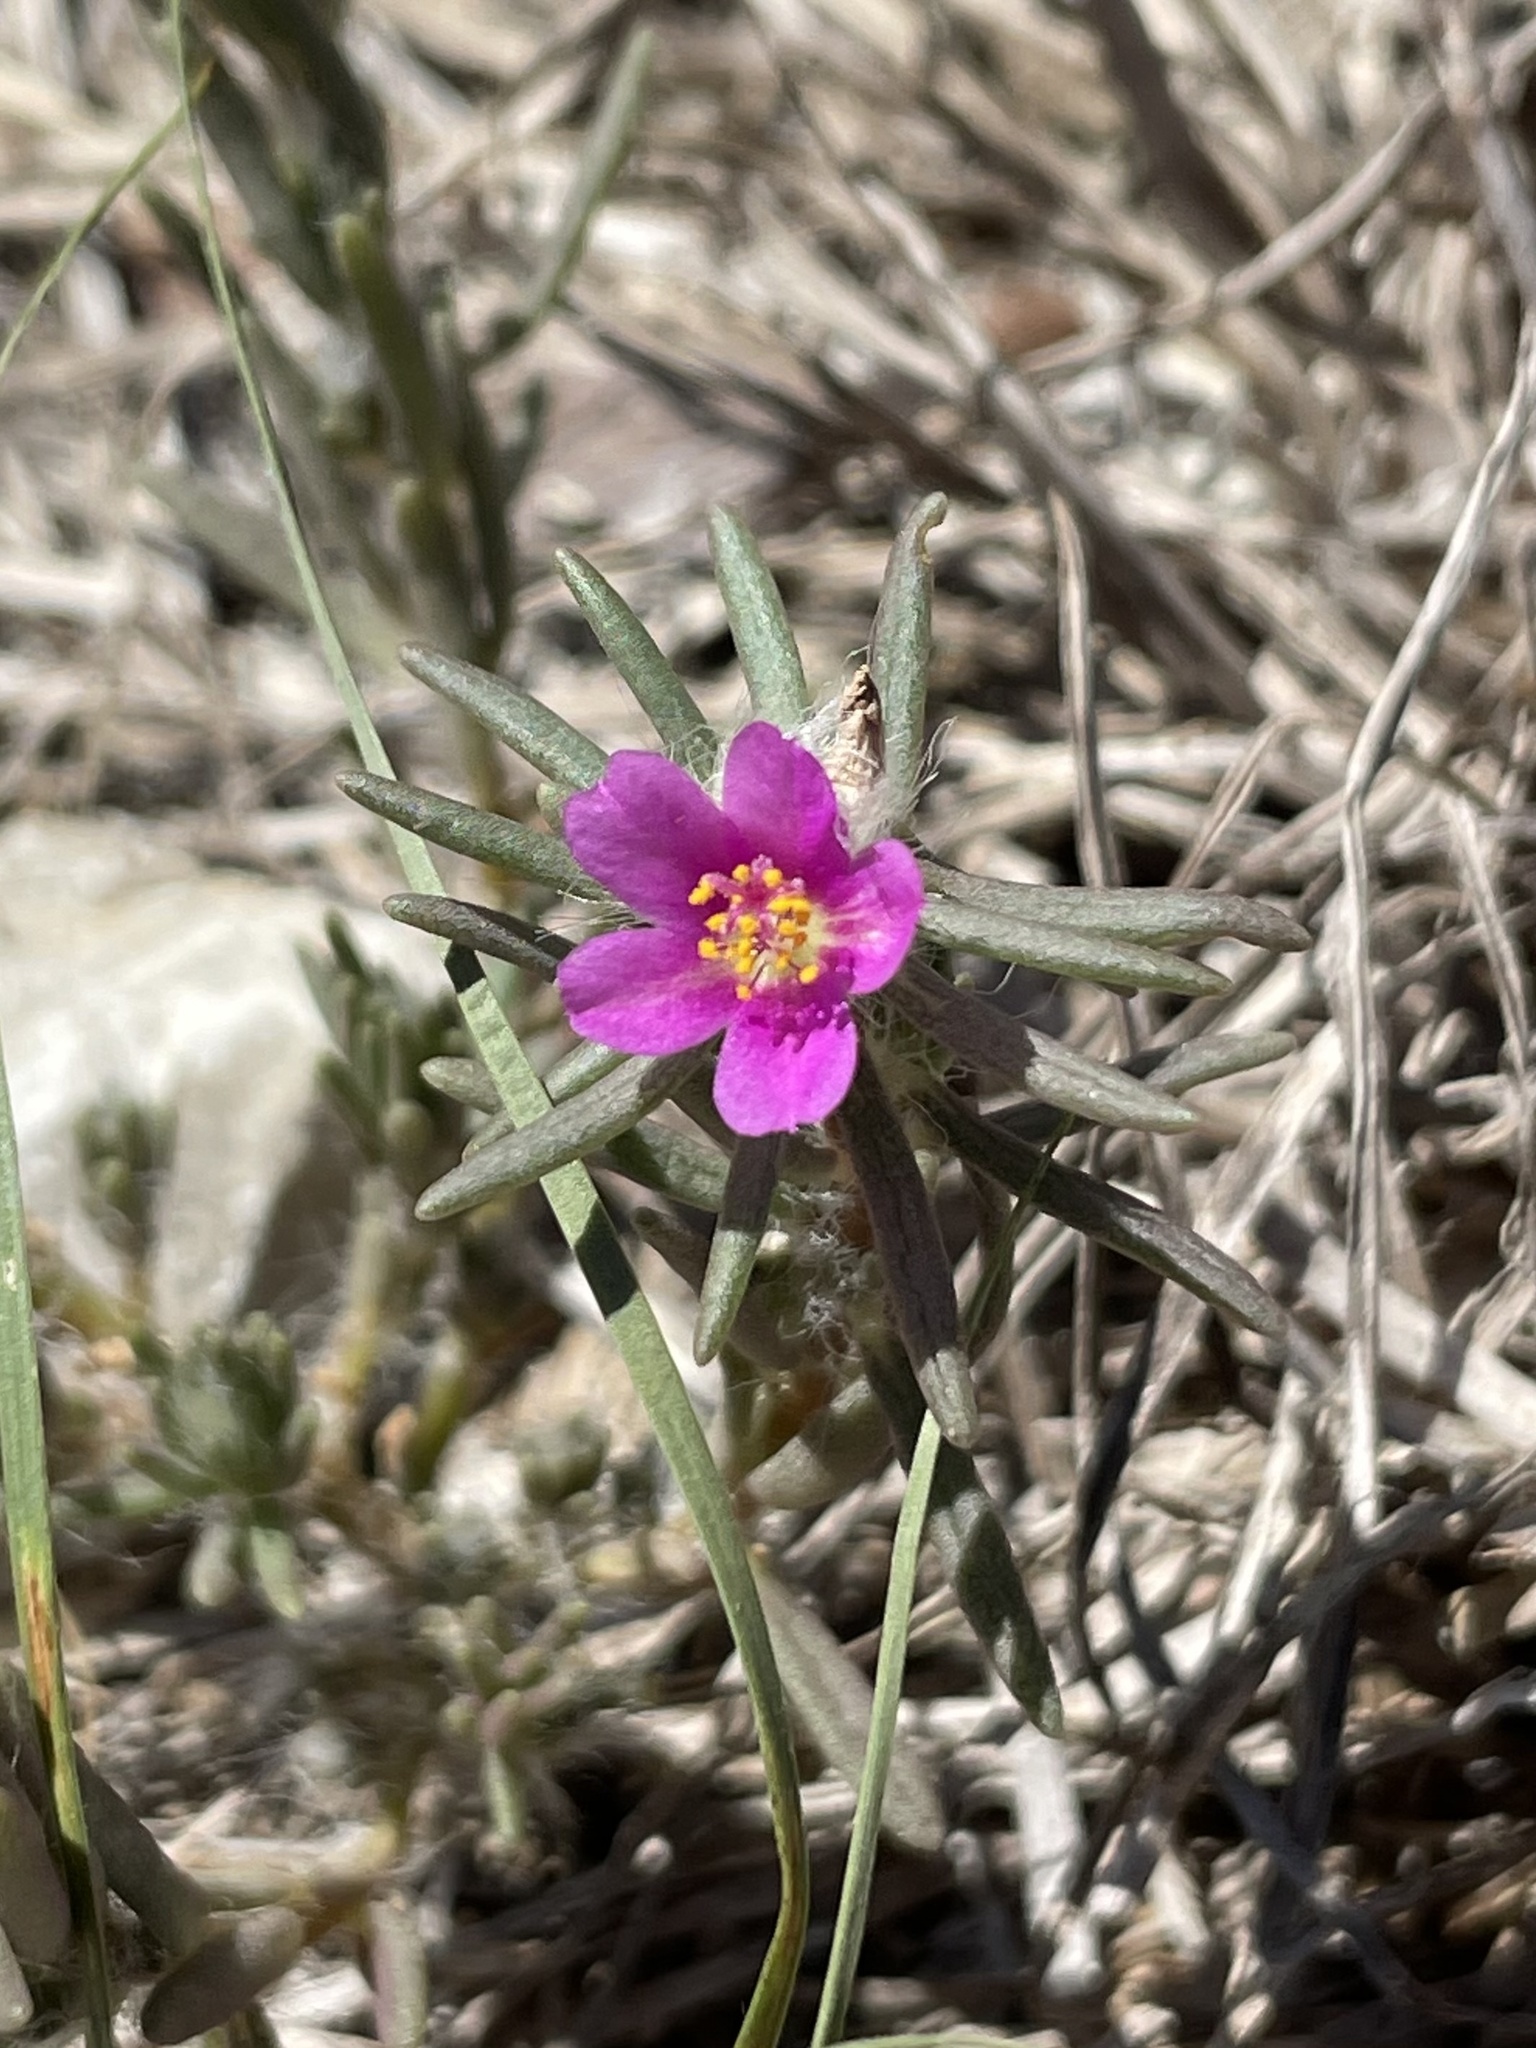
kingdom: Plantae
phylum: Tracheophyta
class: Magnoliopsida
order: Caryophyllales
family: Portulacaceae
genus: Portulaca
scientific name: Portulaca pilosa
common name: Kiss me quick
